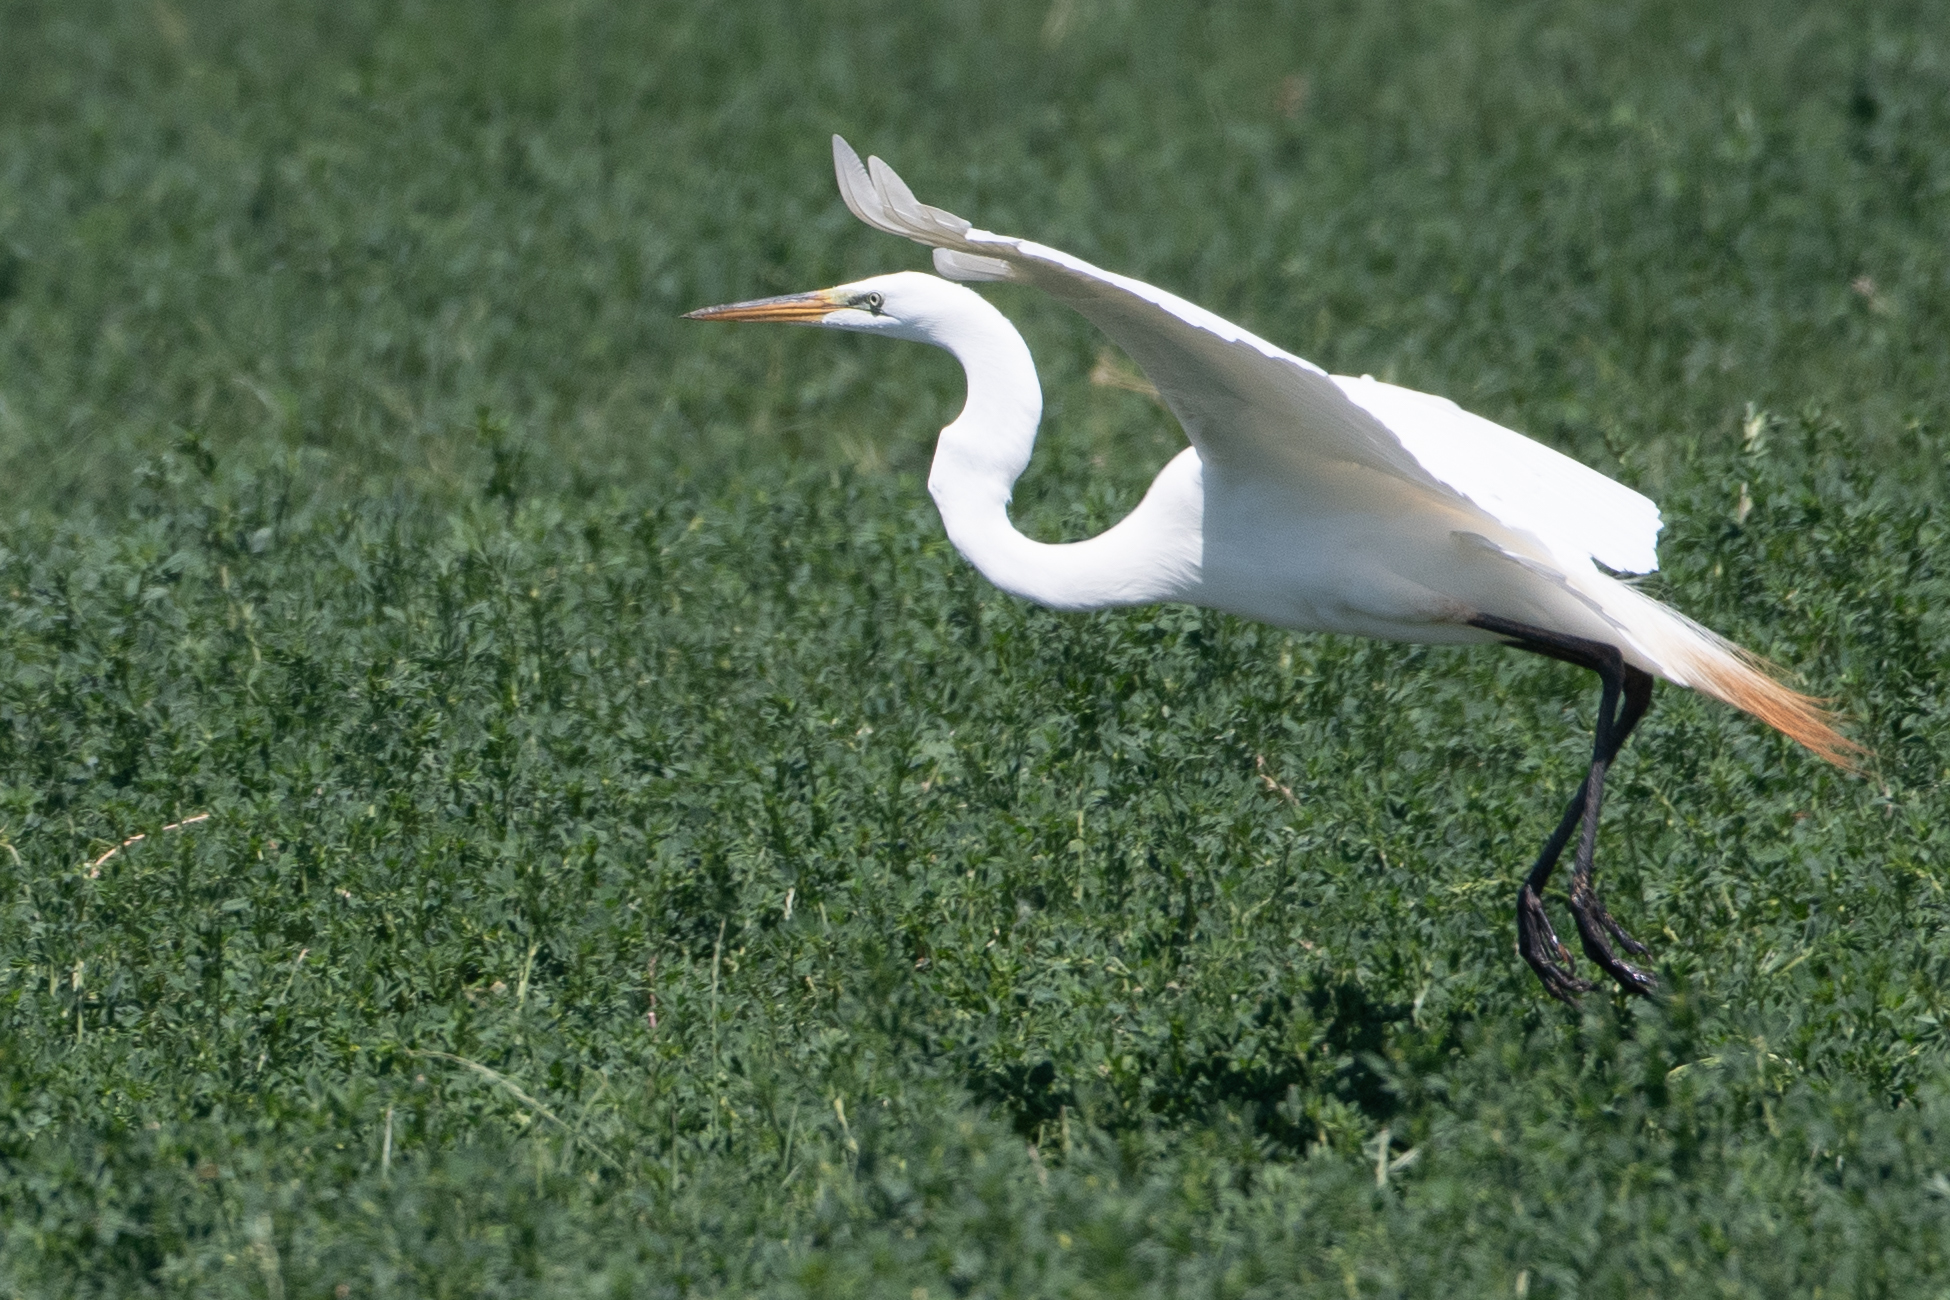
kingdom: Animalia
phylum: Chordata
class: Aves
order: Pelecaniformes
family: Ardeidae
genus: Ardea
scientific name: Ardea alba
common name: Great egret
